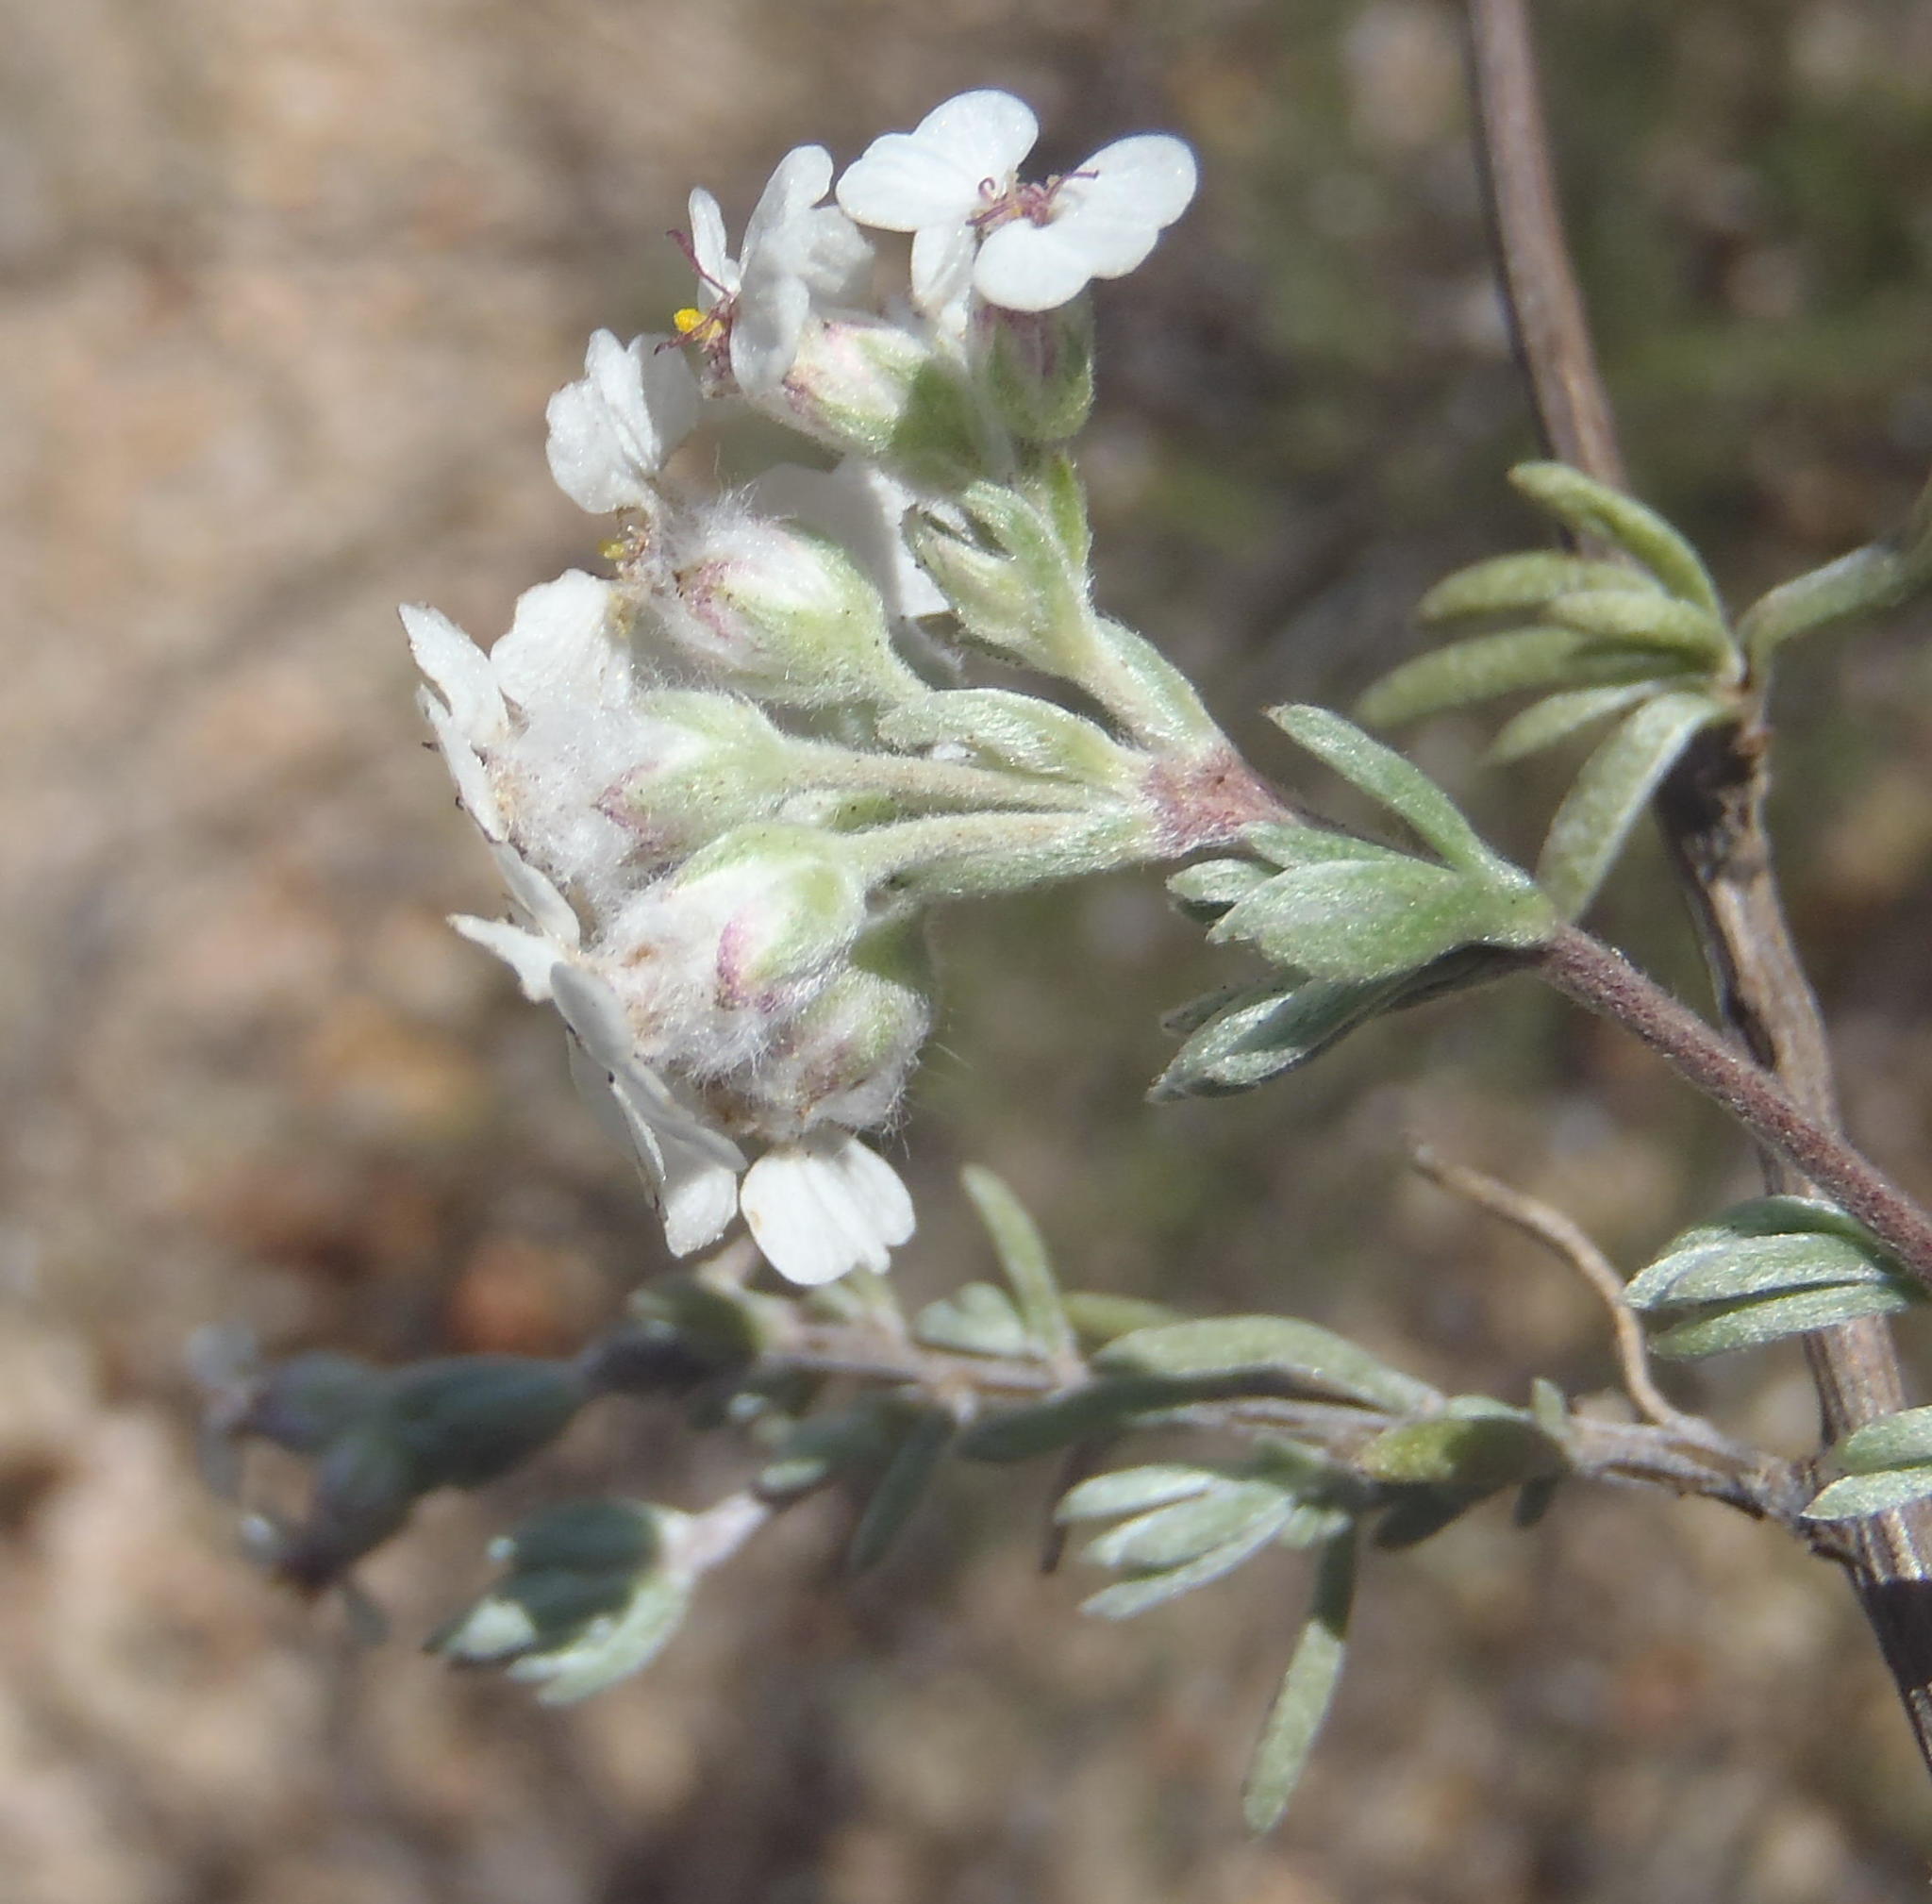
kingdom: Plantae
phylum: Tracheophyta
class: Magnoliopsida
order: Asterales
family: Asteraceae
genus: Eriocephalus
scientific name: Eriocephalus africanus
